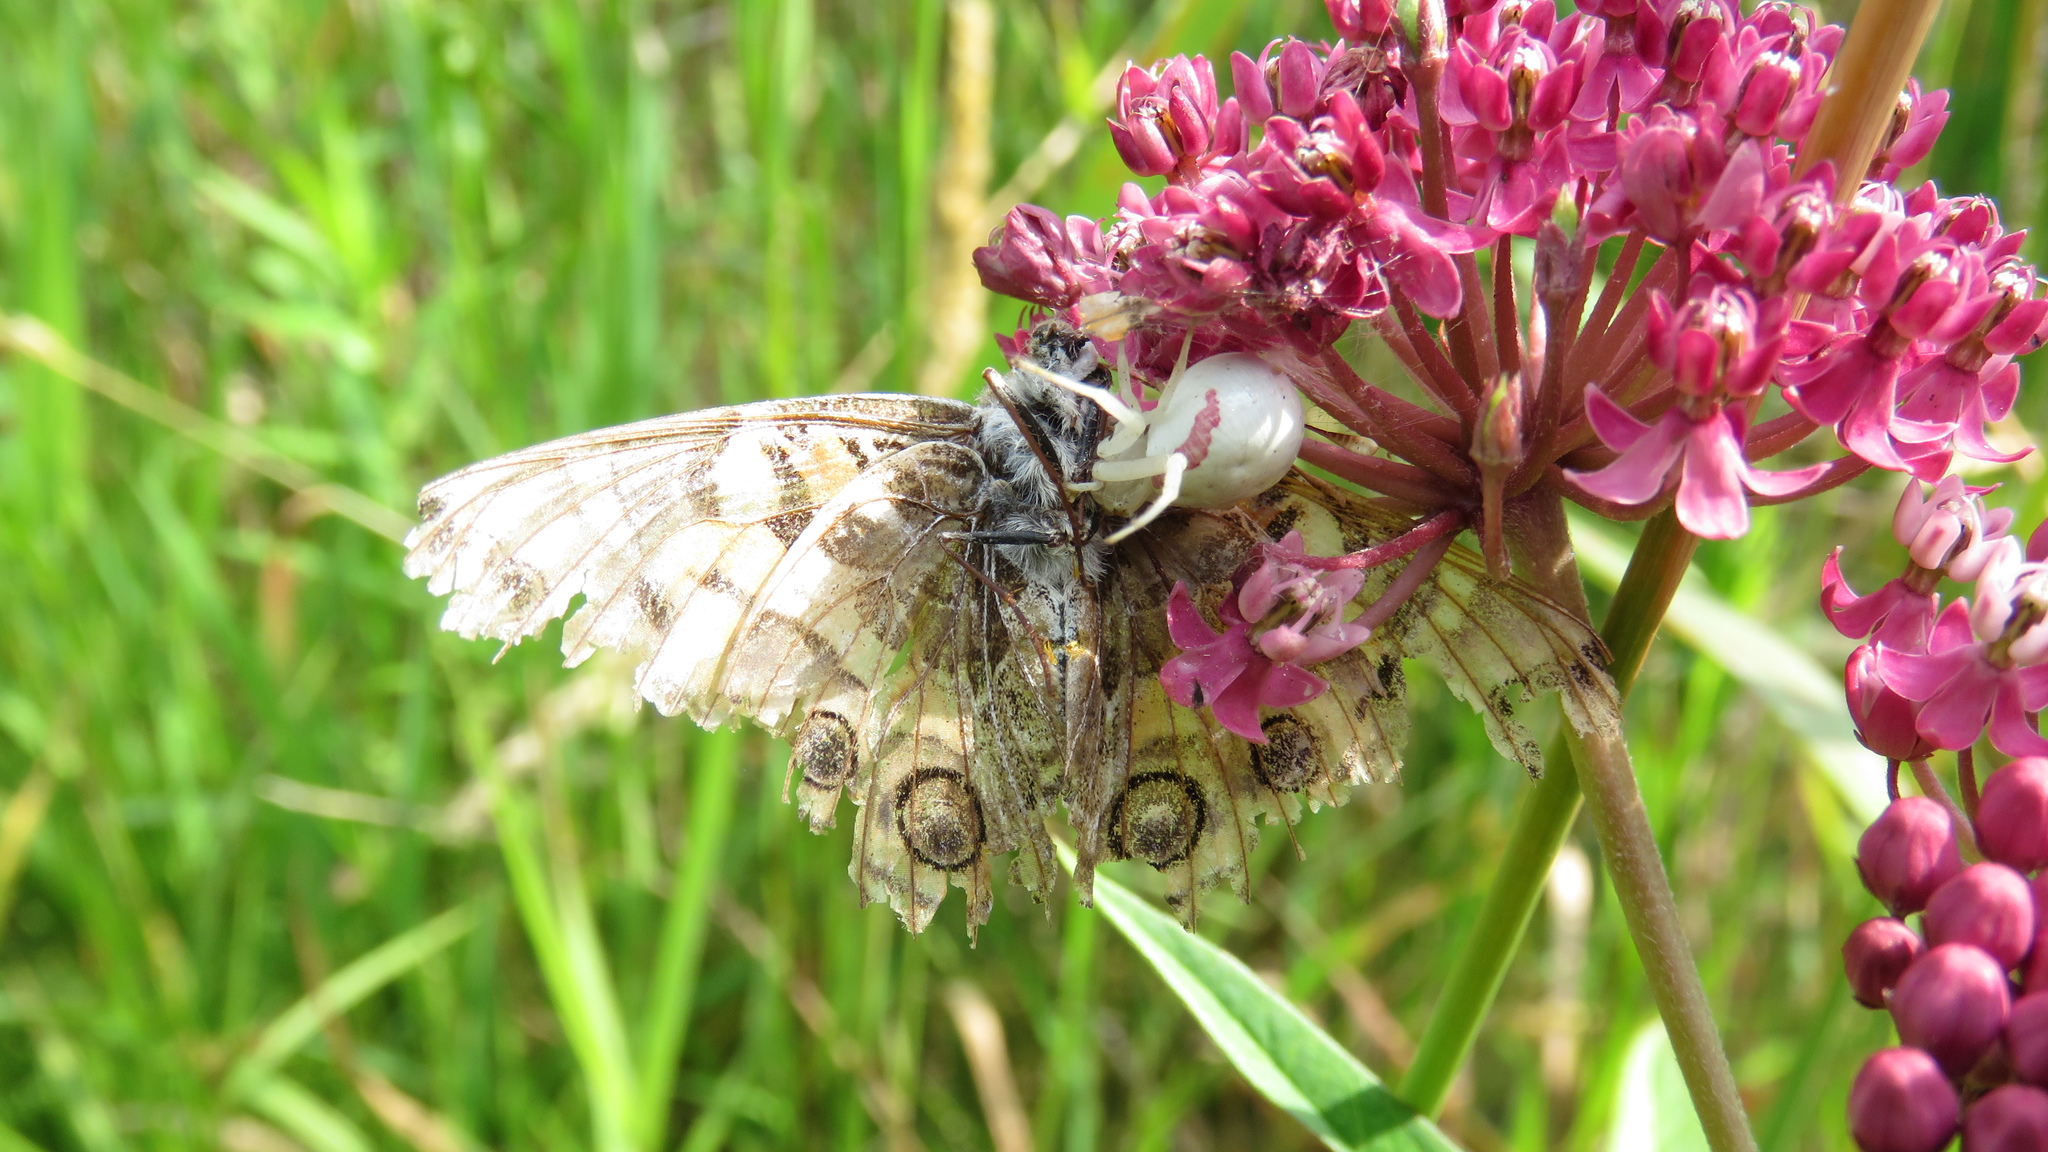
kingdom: Animalia
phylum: Arthropoda
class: Arachnida
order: Araneae
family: Thomisidae
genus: Misumena
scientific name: Misumena vatia
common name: Goldenrod crab spider
